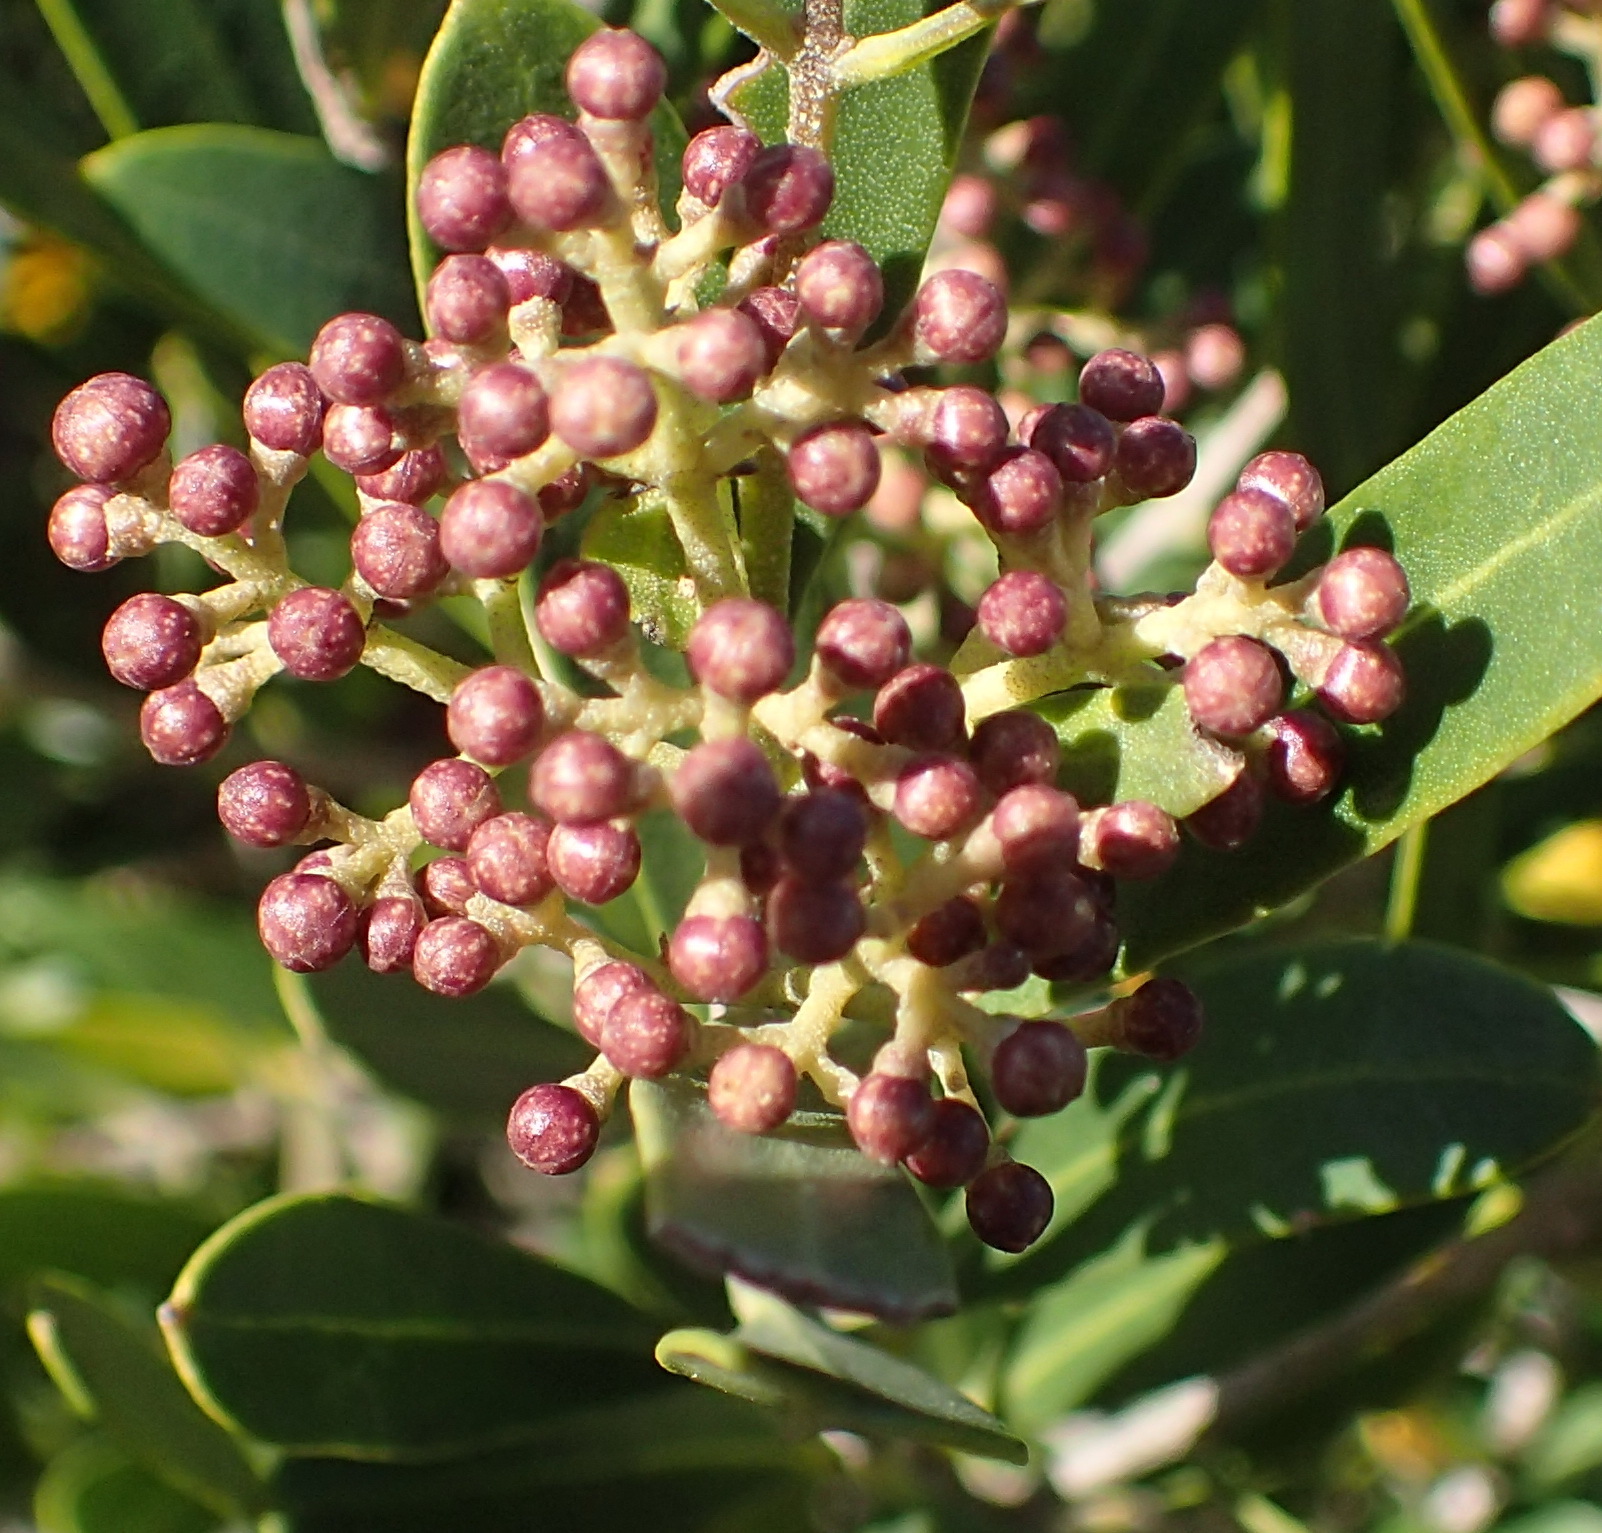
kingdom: Plantae
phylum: Tracheophyta
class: Magnoliopsida
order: Lamiales
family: Oleaceae
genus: Olea
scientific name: Olea exasperata
